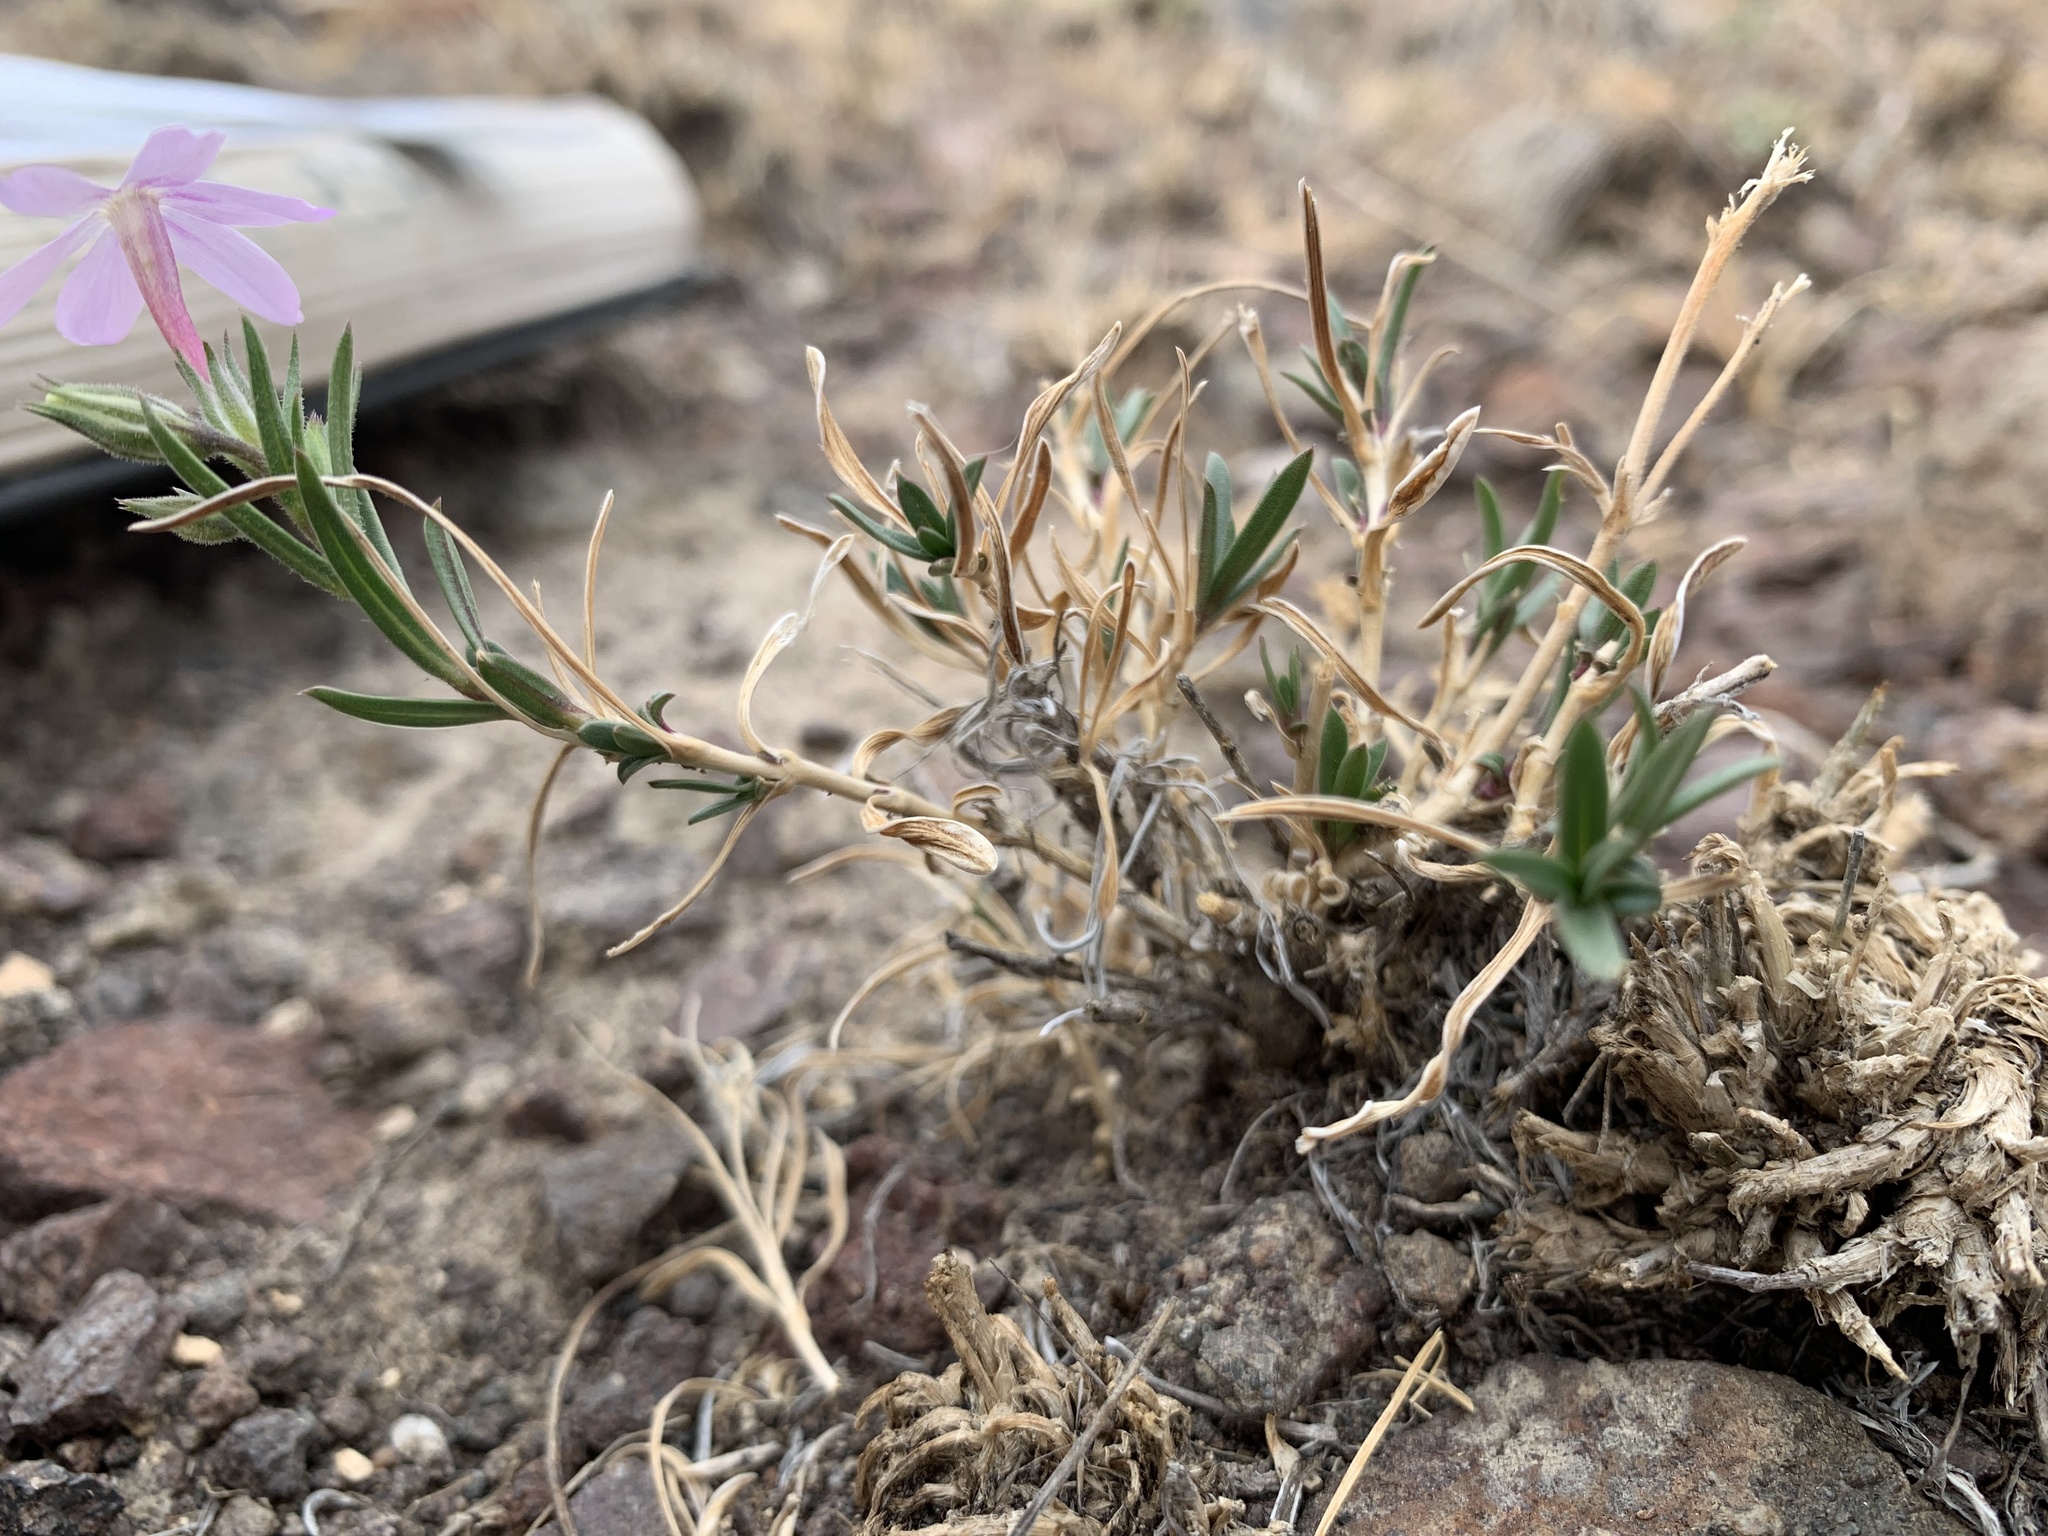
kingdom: Plantae
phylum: Tracheophyta
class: Magnoliopsida
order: Ericales
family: Polemoniaceae
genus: Phlox
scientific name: Phlox longifolia
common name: Longleaf phlox
